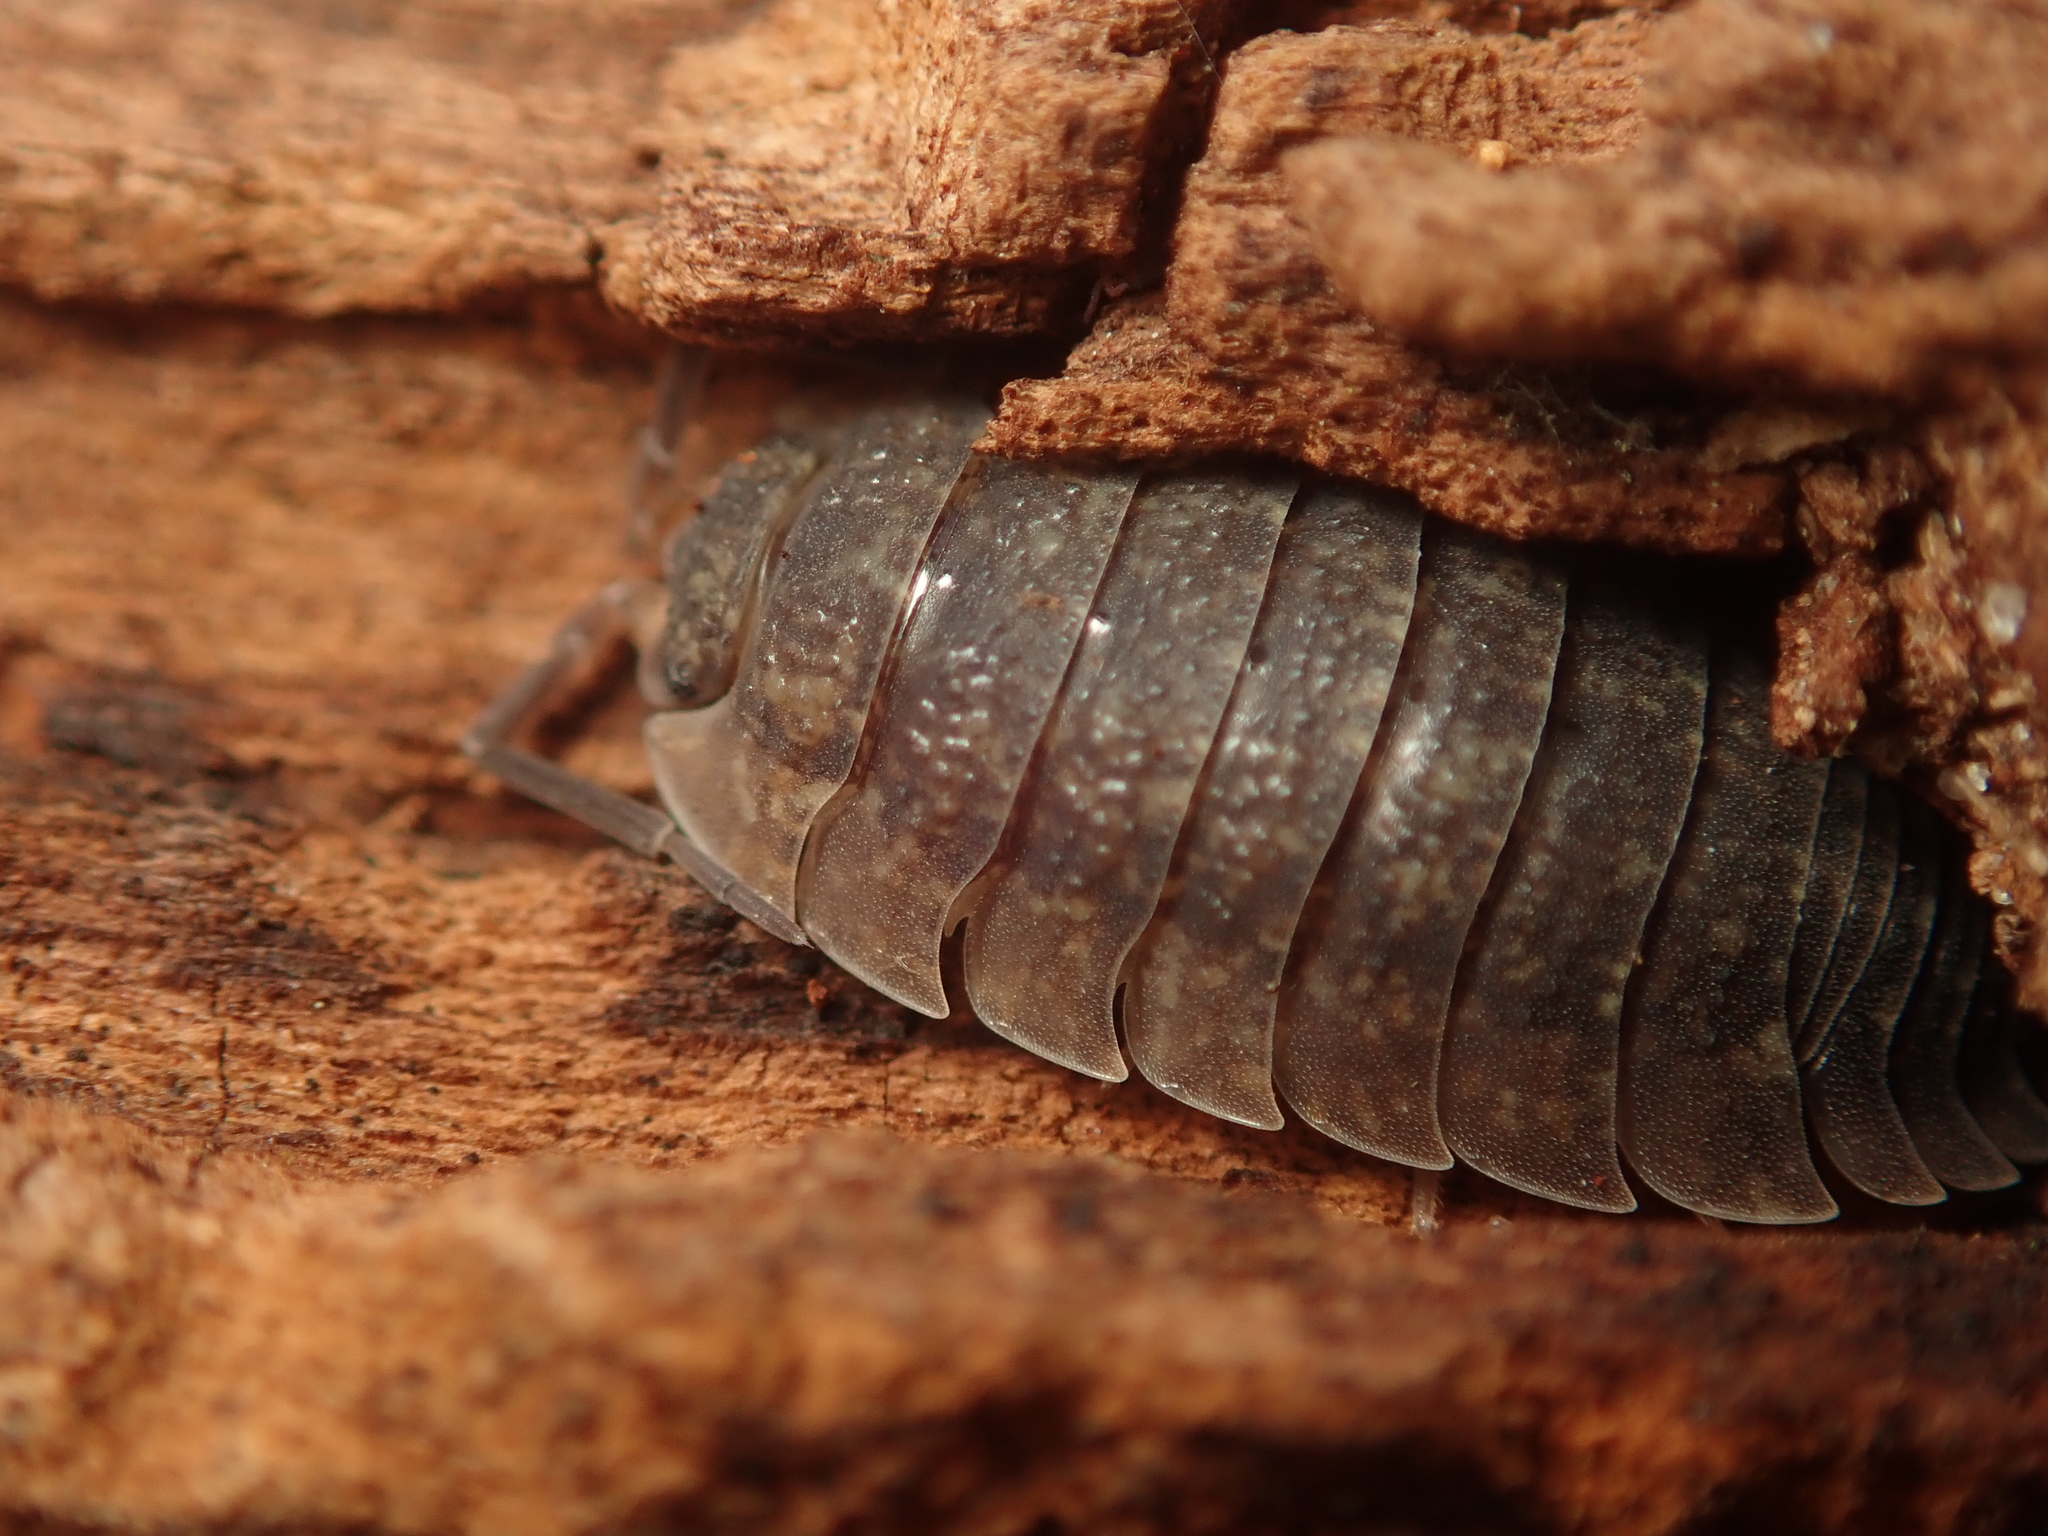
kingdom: Animalia
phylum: Arthropoda
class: Malacostraca
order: Isopoda
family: Porcellionidae
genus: Porcellio
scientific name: Porcellio scaber
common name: Common rough woodlouse
